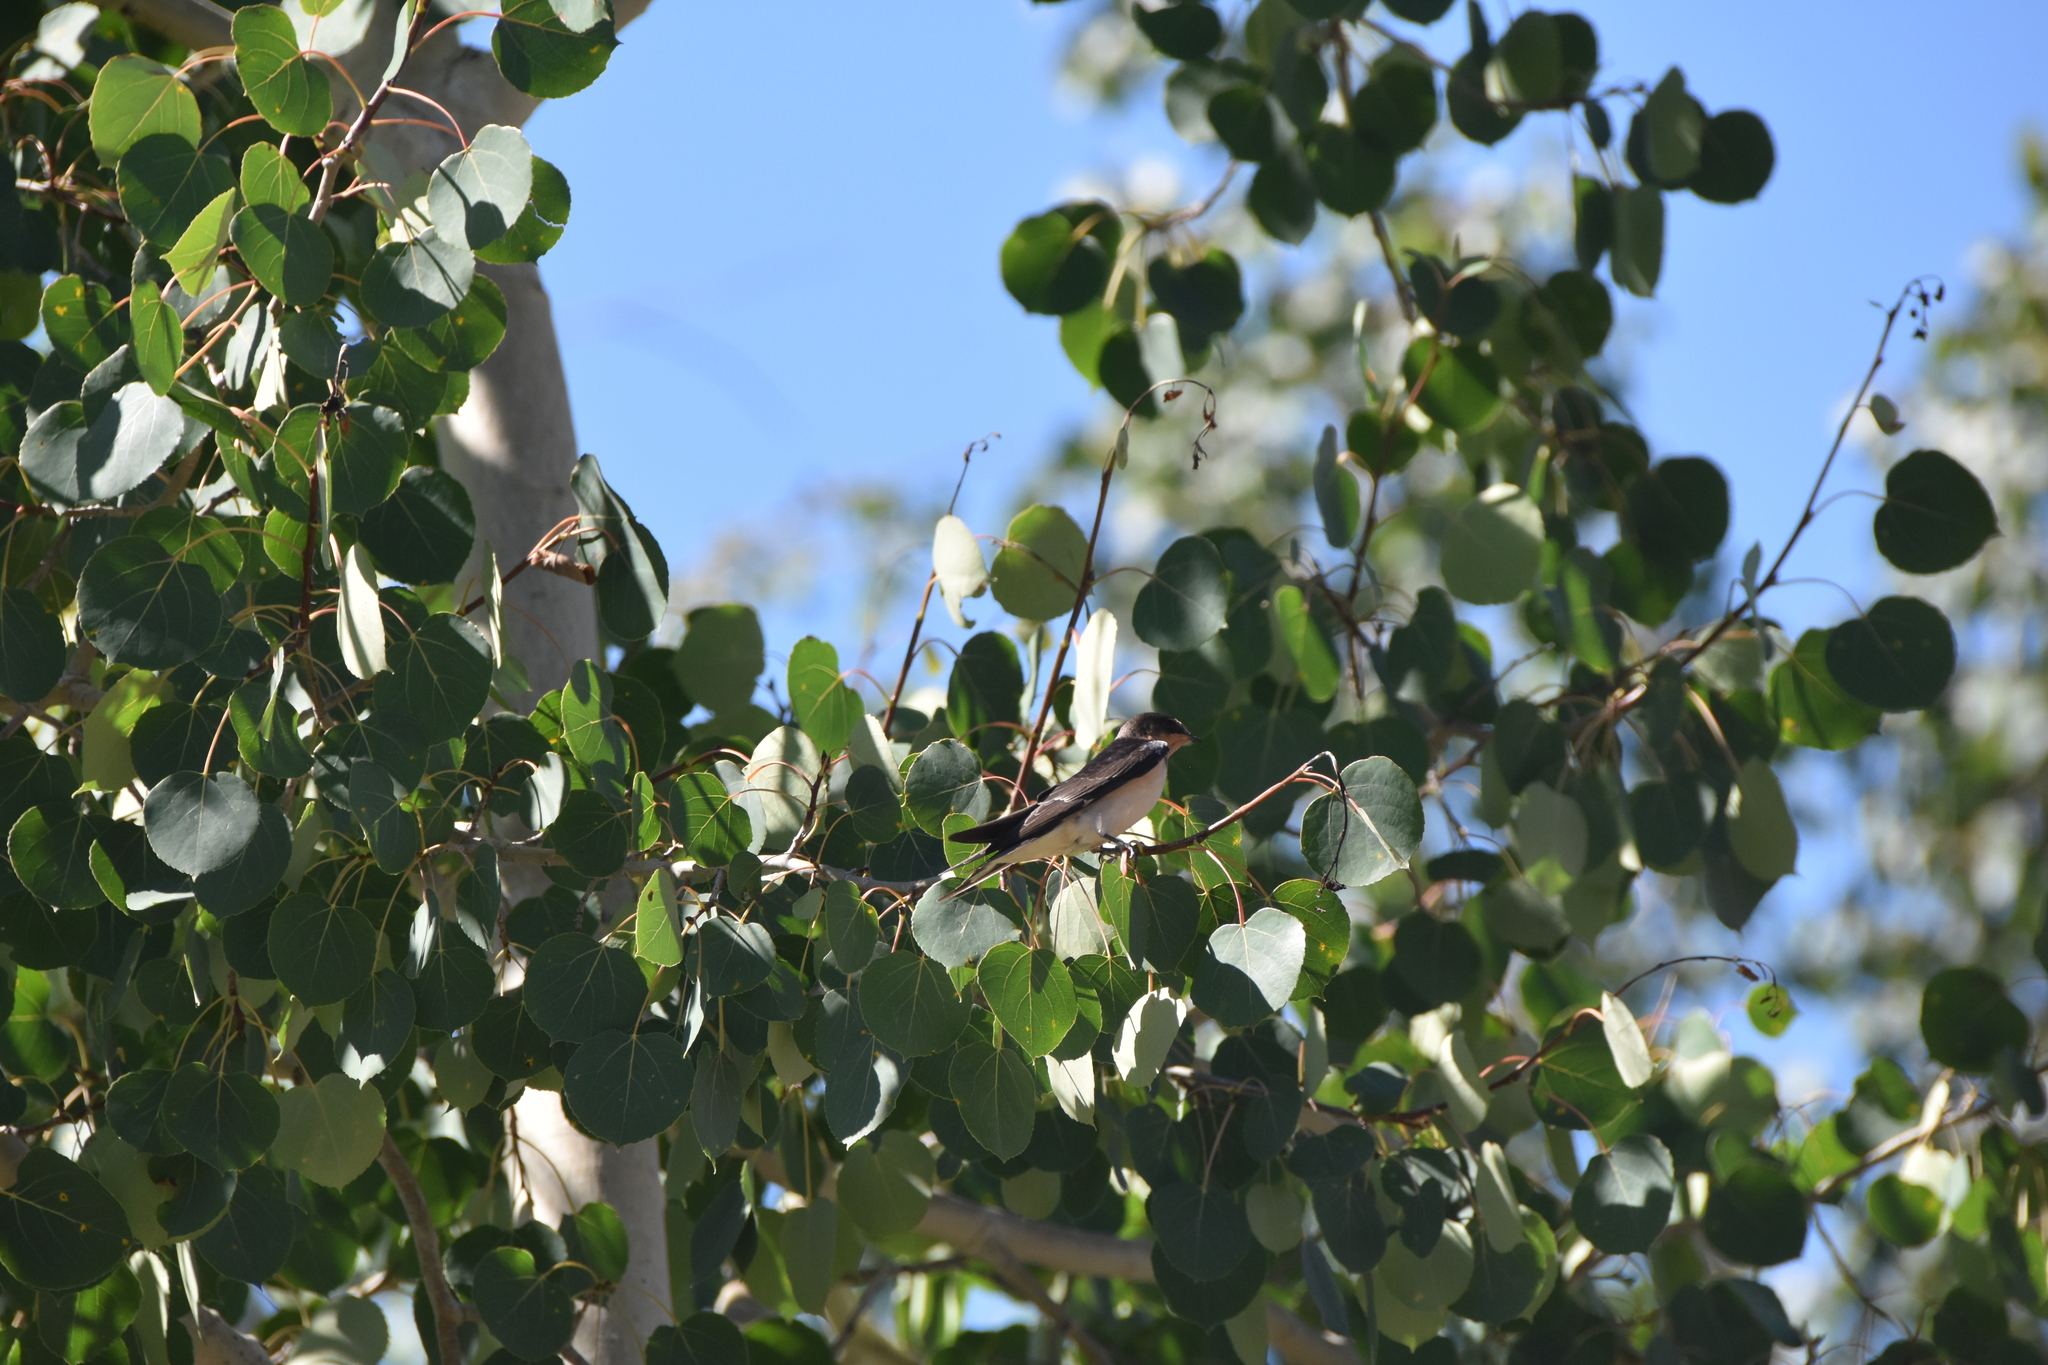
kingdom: Animalia
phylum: Chordata
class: Aves
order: Passeriformes
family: Hirundinidae
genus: Hirundo
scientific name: Hirundo rustica
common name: Barn swallow
